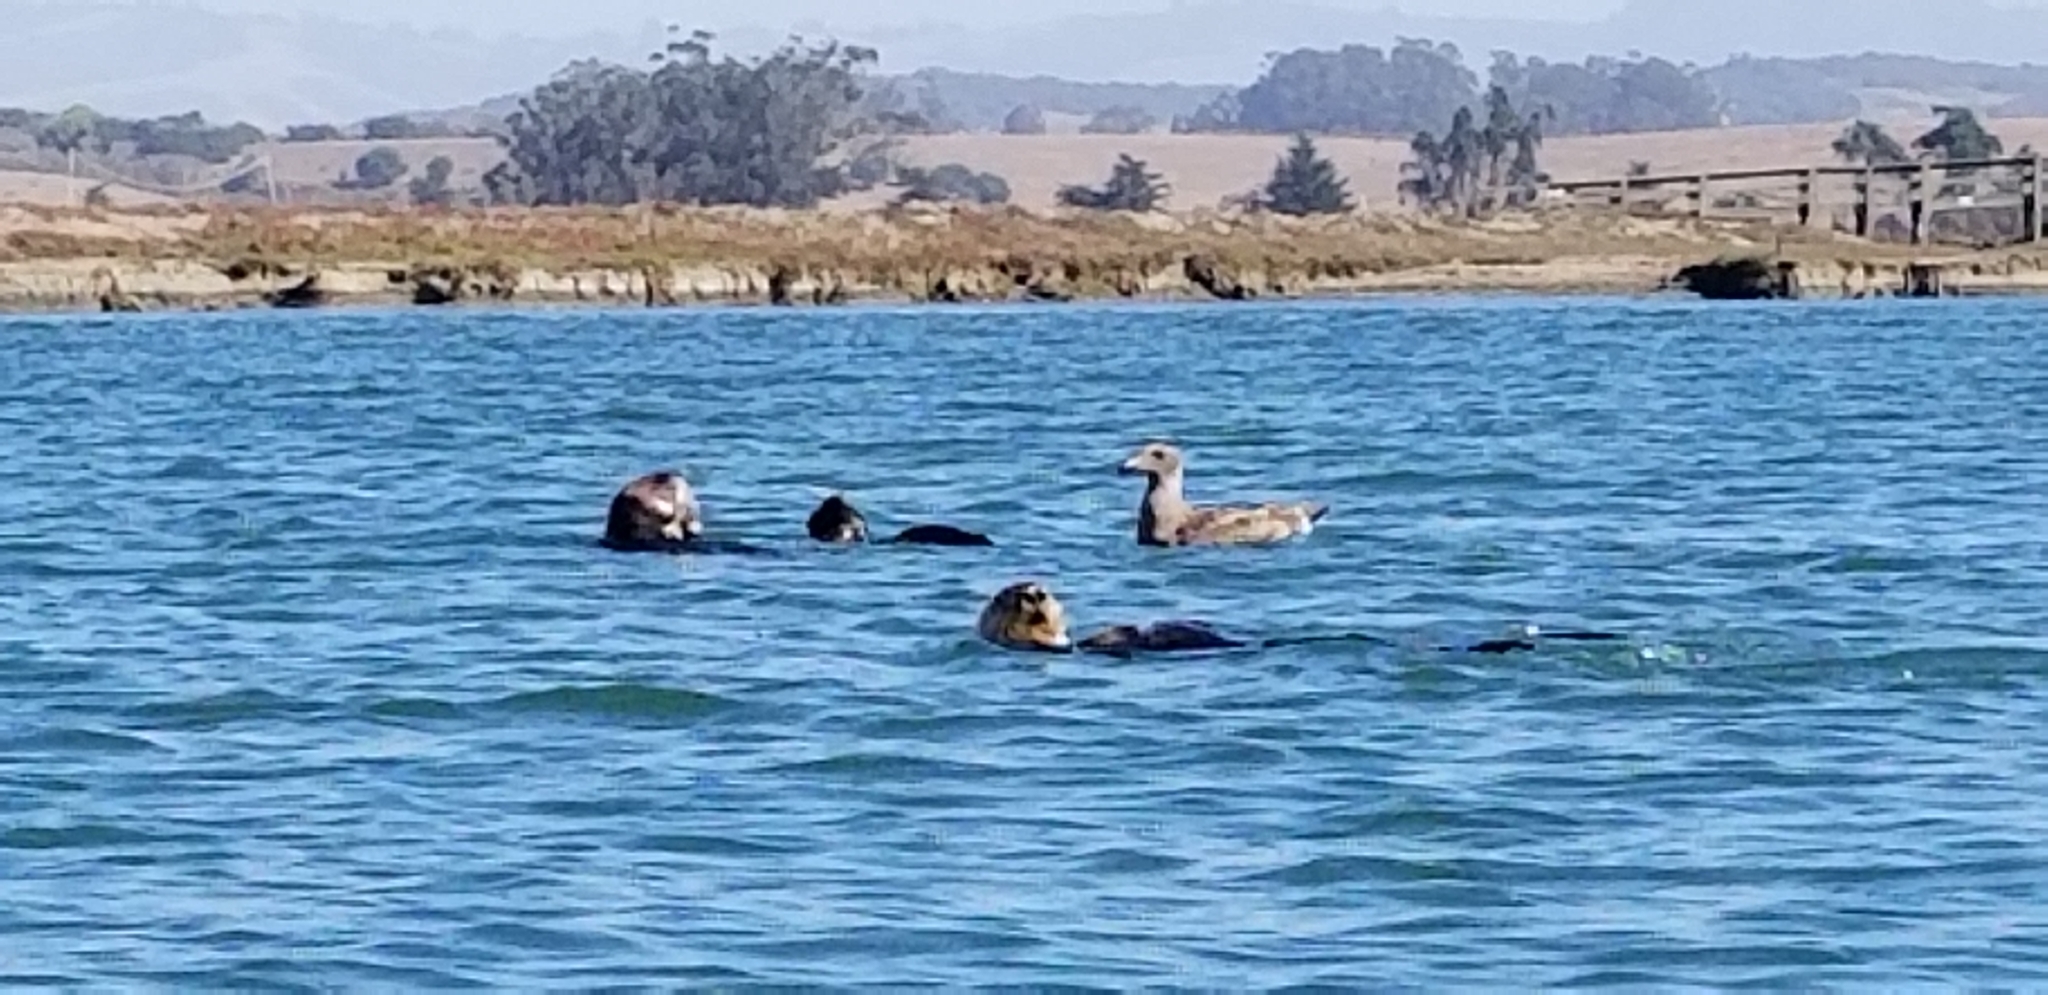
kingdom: Animalia
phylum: Chordata
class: Mammalia
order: Carnivora
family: Mustelidae
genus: Enhydra
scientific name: Enhydra lutris
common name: Sea otter
